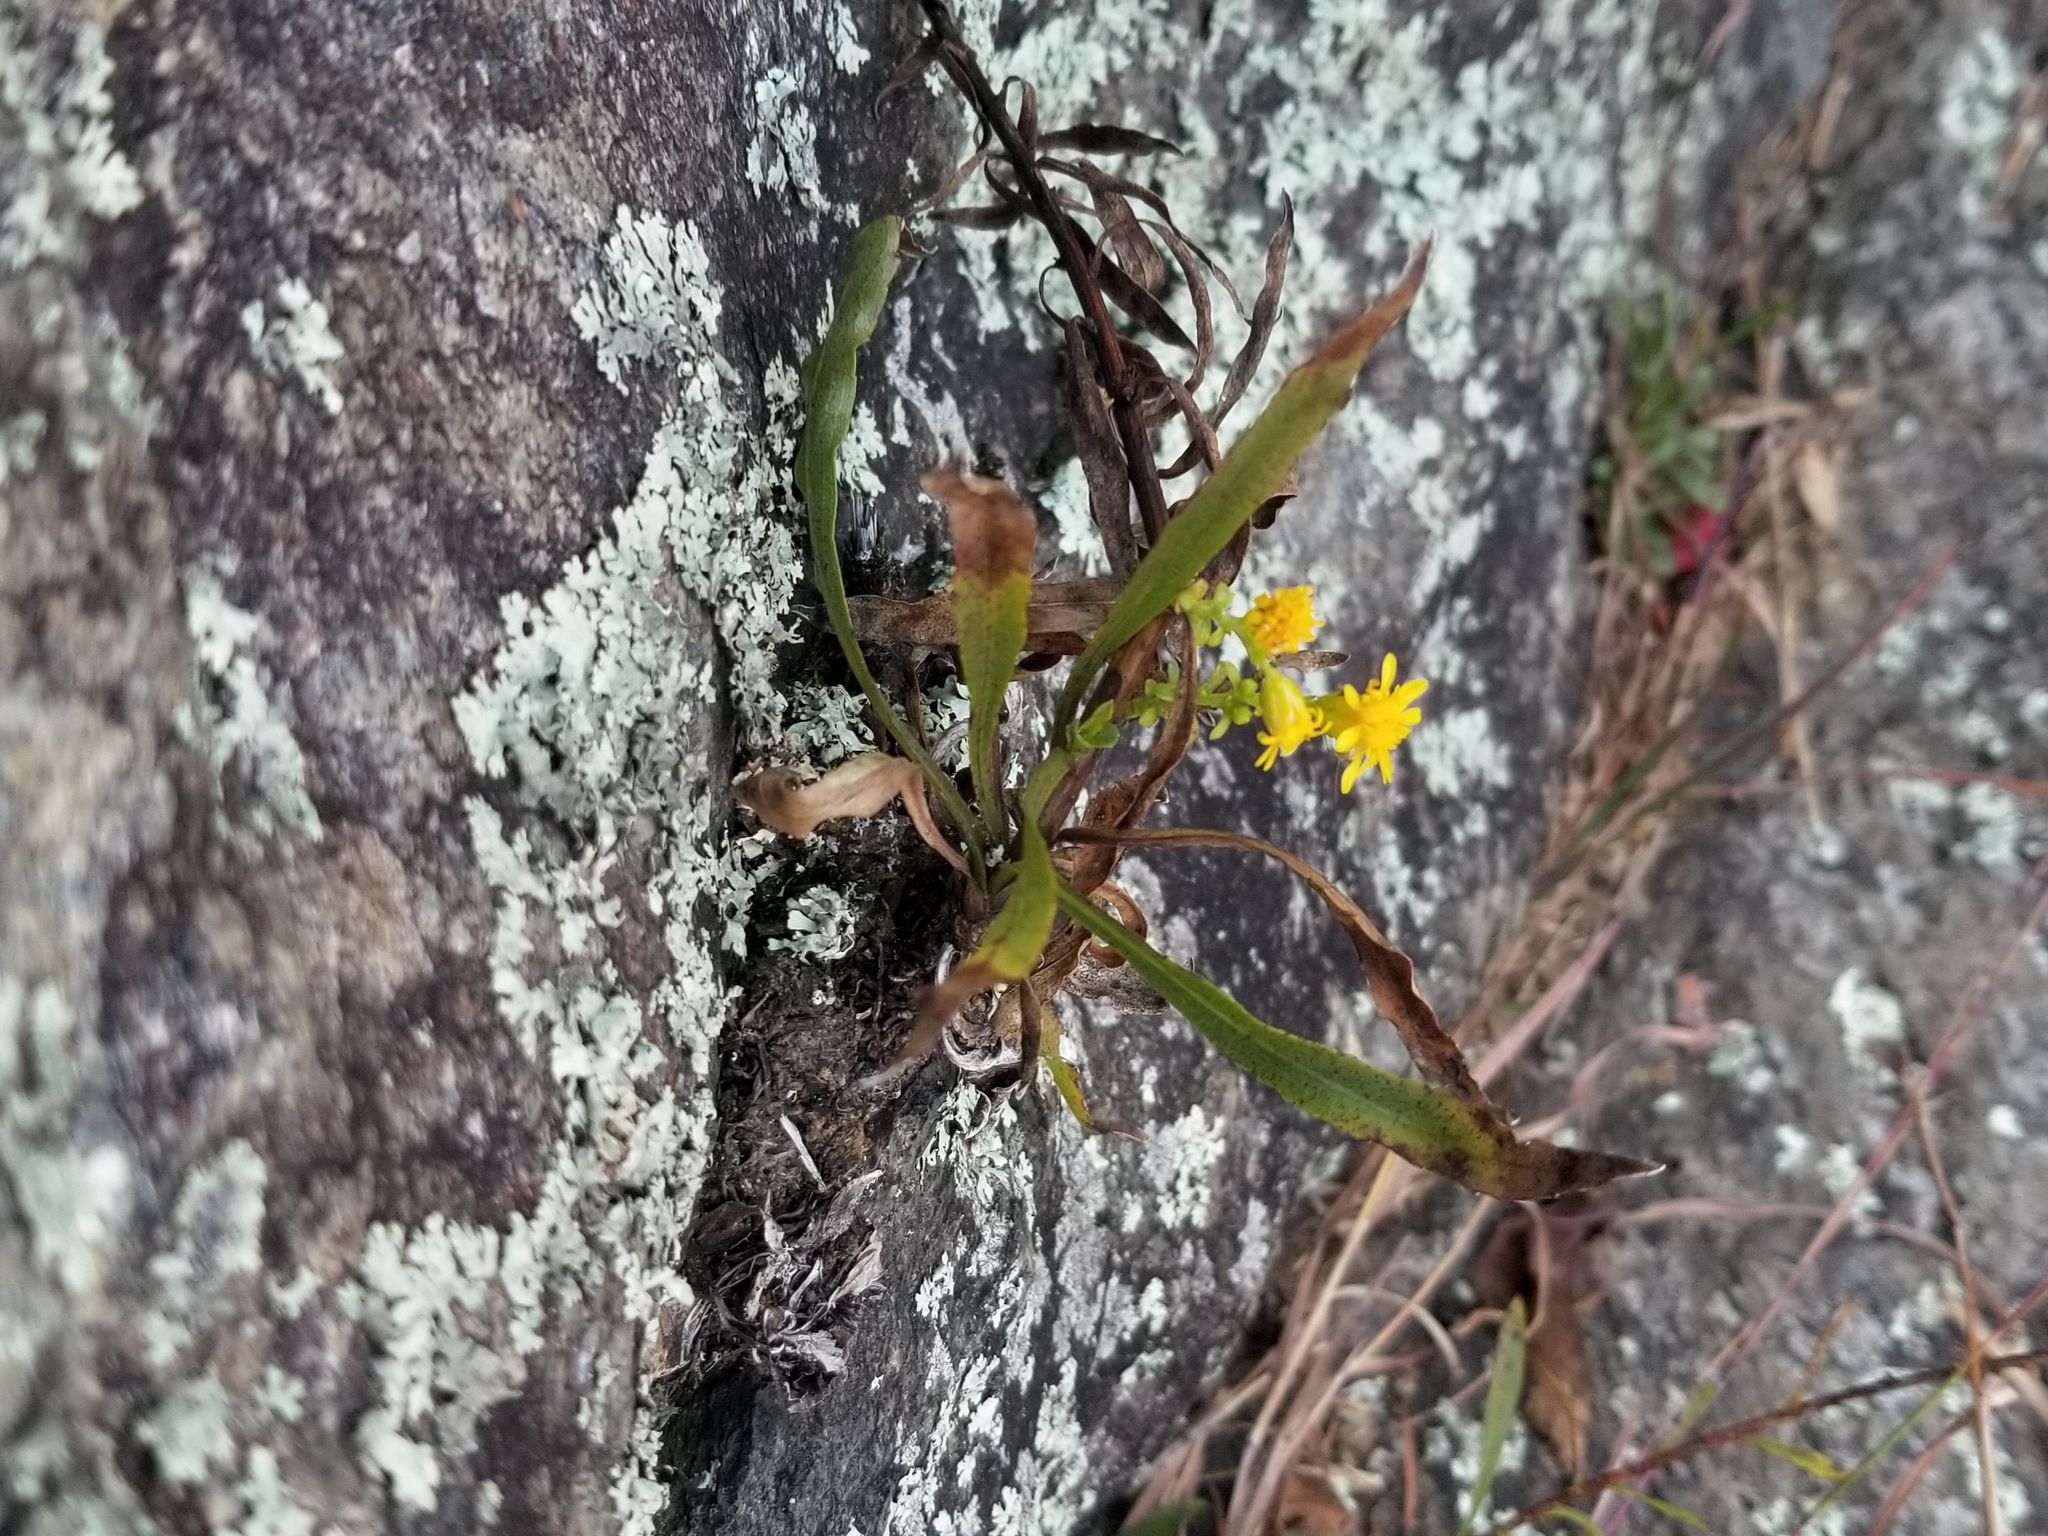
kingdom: Plantae
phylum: Tracheophyta
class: Magnoliopsida
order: Asterales
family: Asteraceae
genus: Solidago
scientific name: Solidago racemosa
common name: Lake ontario goldenrod
